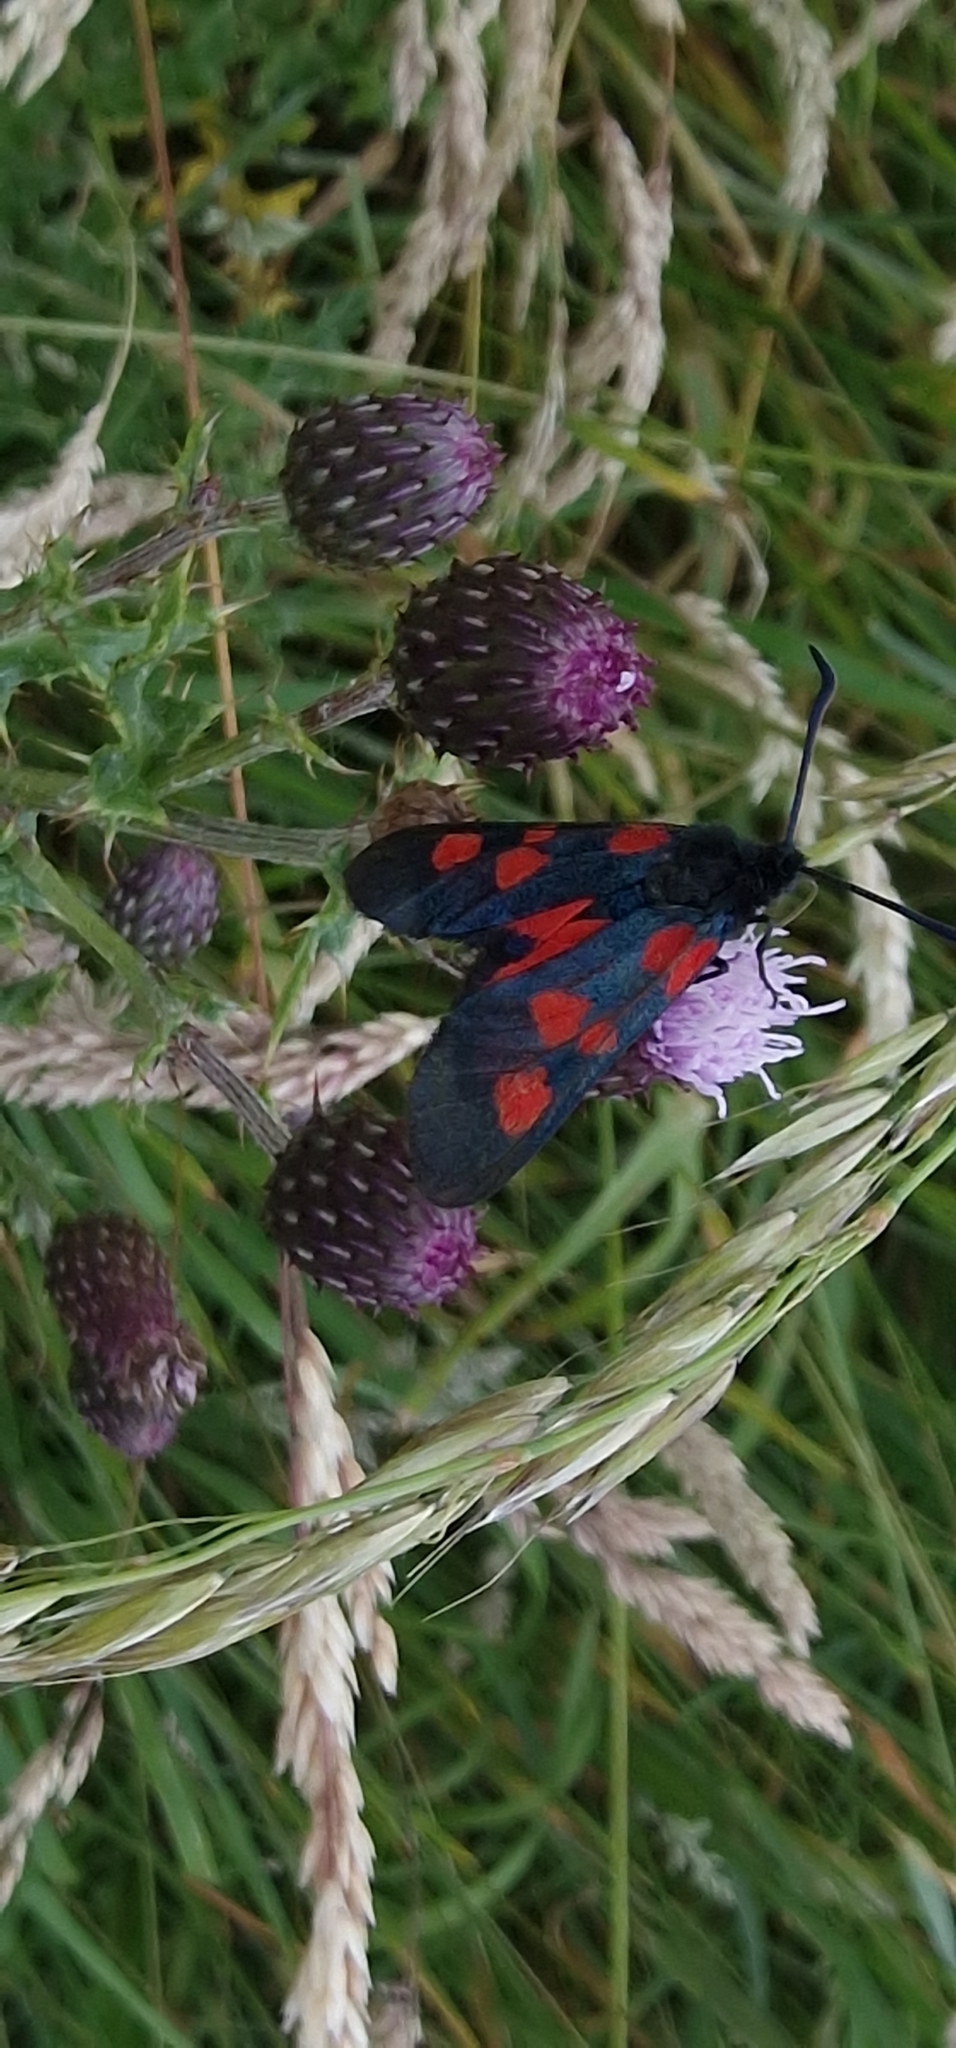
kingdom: Animalia
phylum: Arthropoda
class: Insecta
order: Lepidoptera
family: Zygaenidae
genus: Zygaena
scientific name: Zygaena lonicerae
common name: Narrow-bordered five-spot burnet
